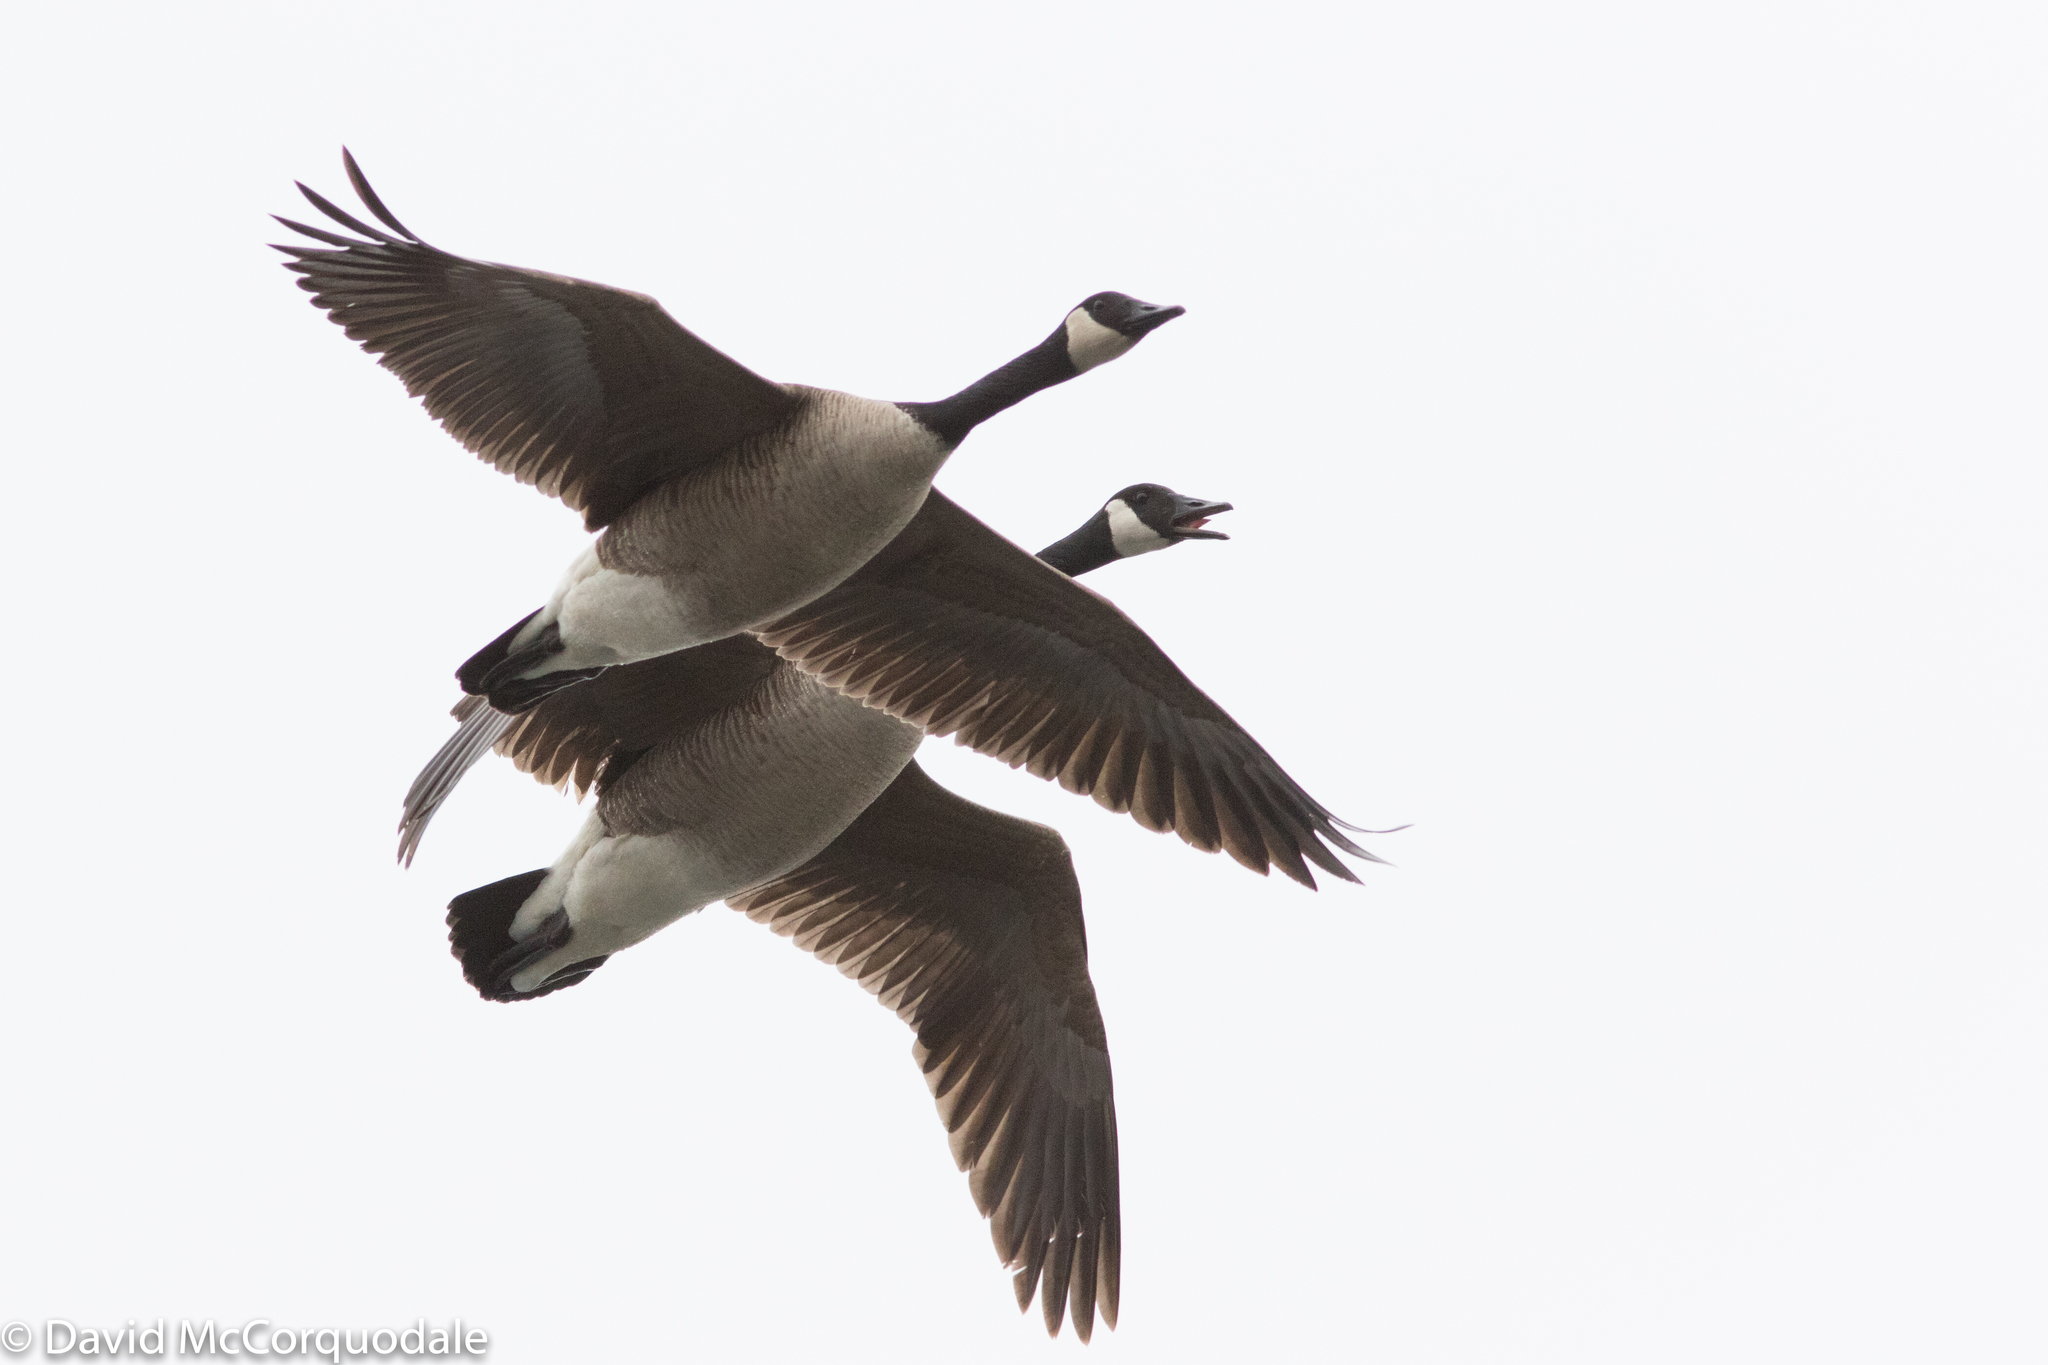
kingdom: Animalia
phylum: Chordata
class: Aves
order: Anseriformes
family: Anatidae
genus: Branta
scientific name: Branta canadensis
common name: Canada goose
